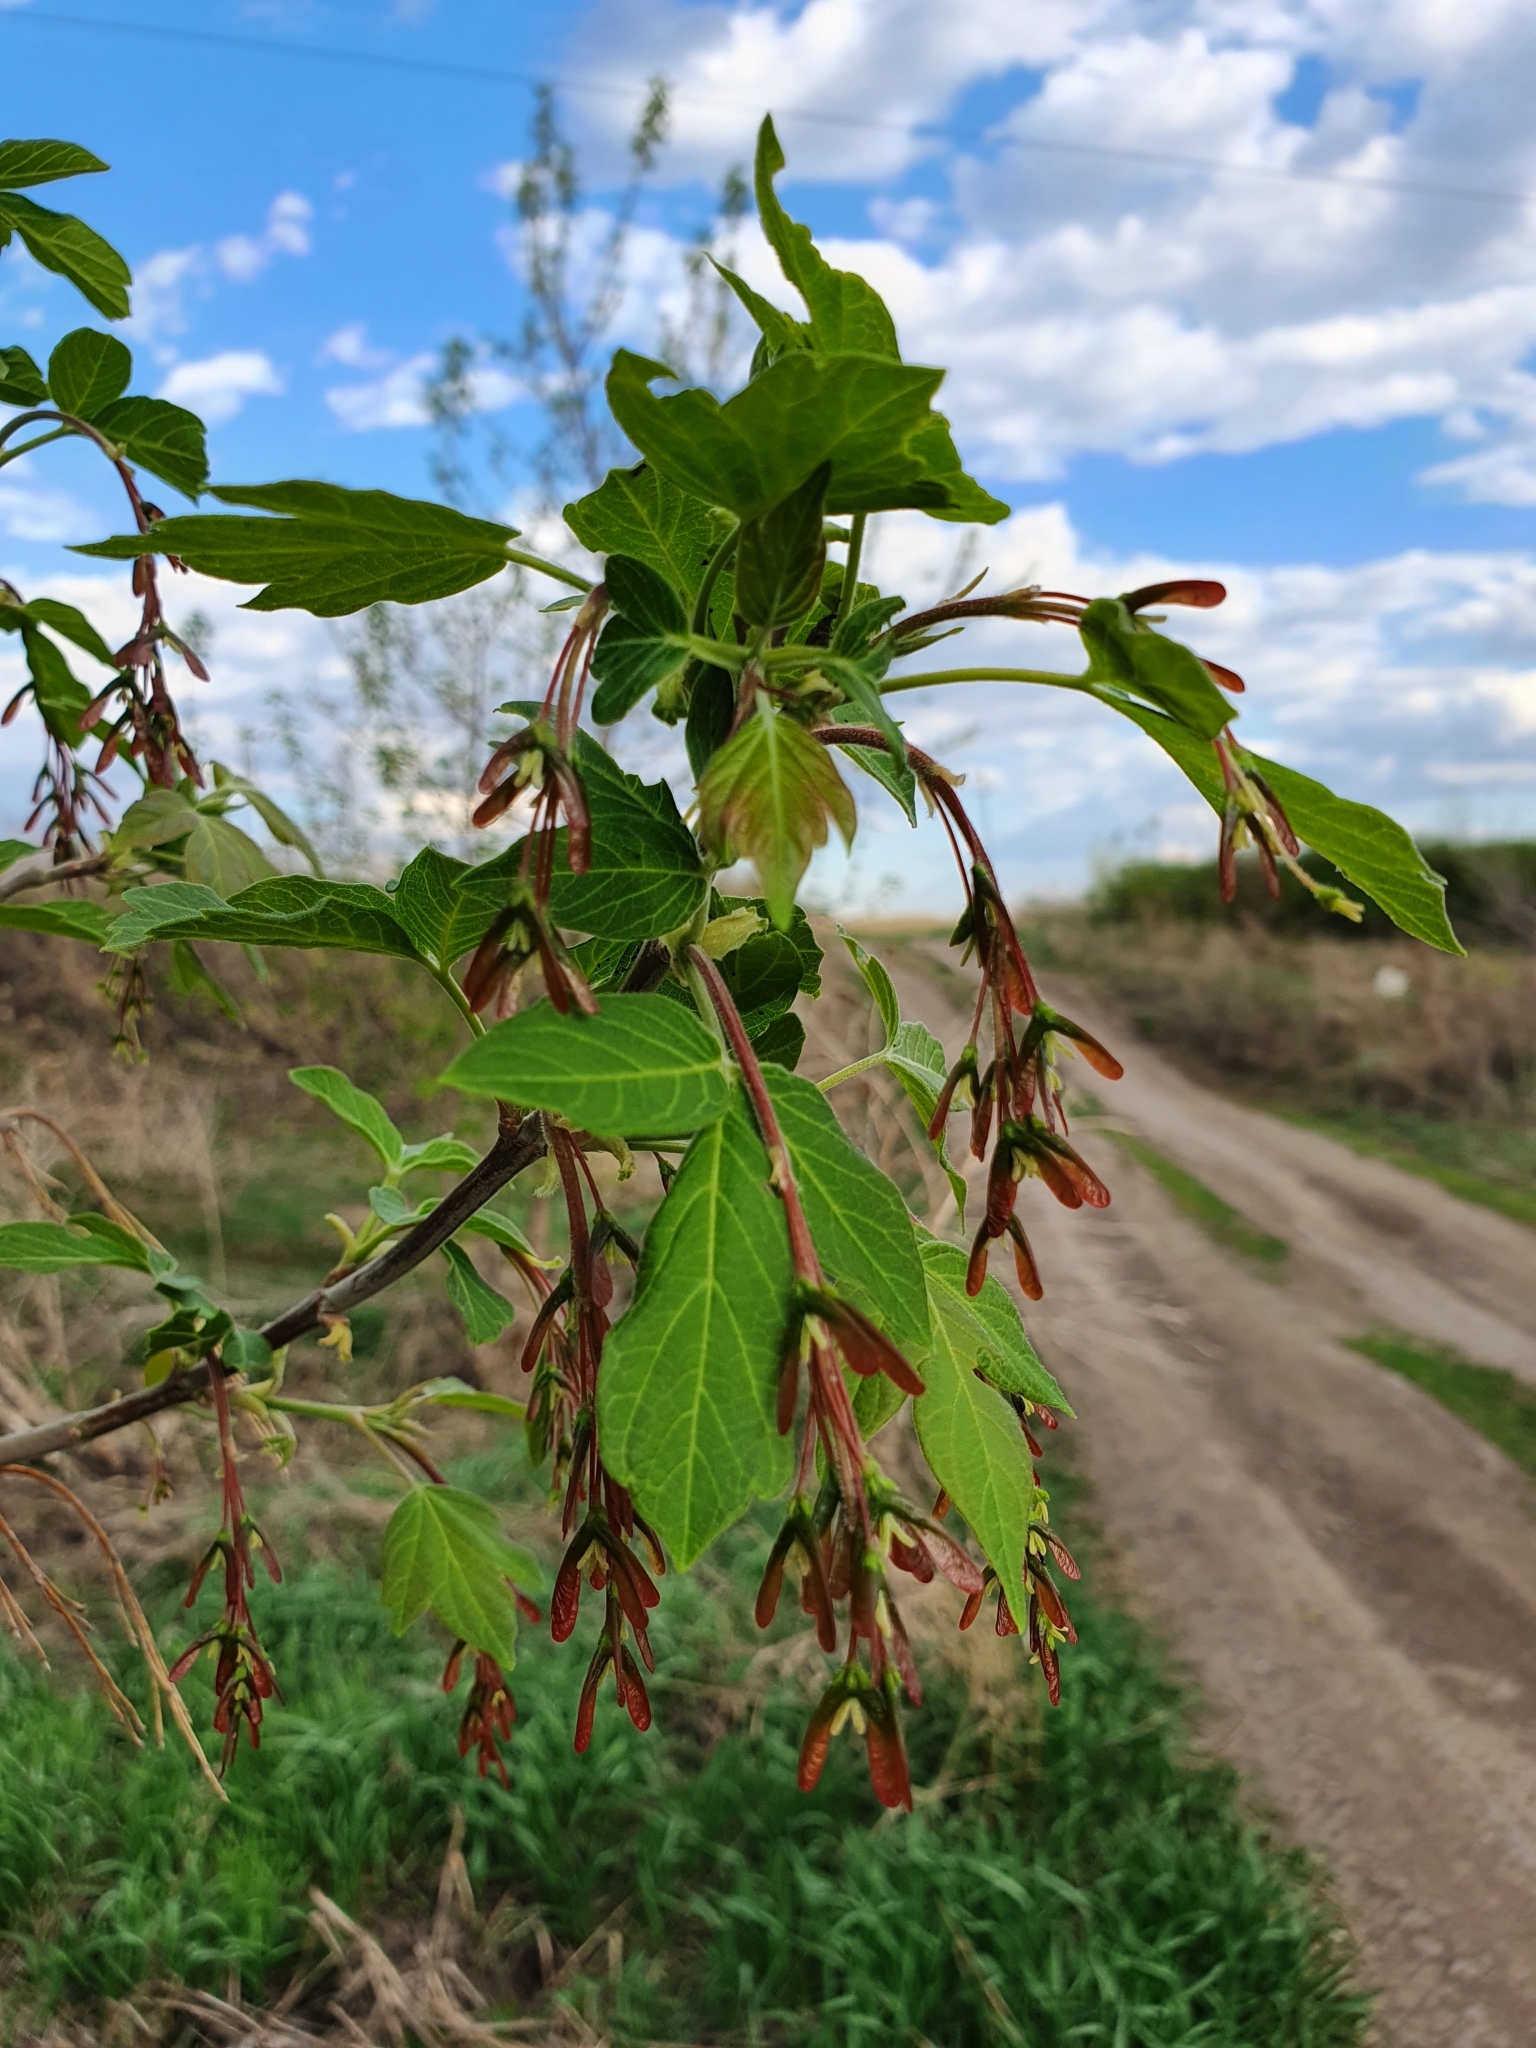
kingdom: Plantae
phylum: Tracheophyta
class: Magnoliopsida
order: Sapindales
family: Sapindaceae
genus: Acer
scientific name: Acer negundo
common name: Ashleaf maple
